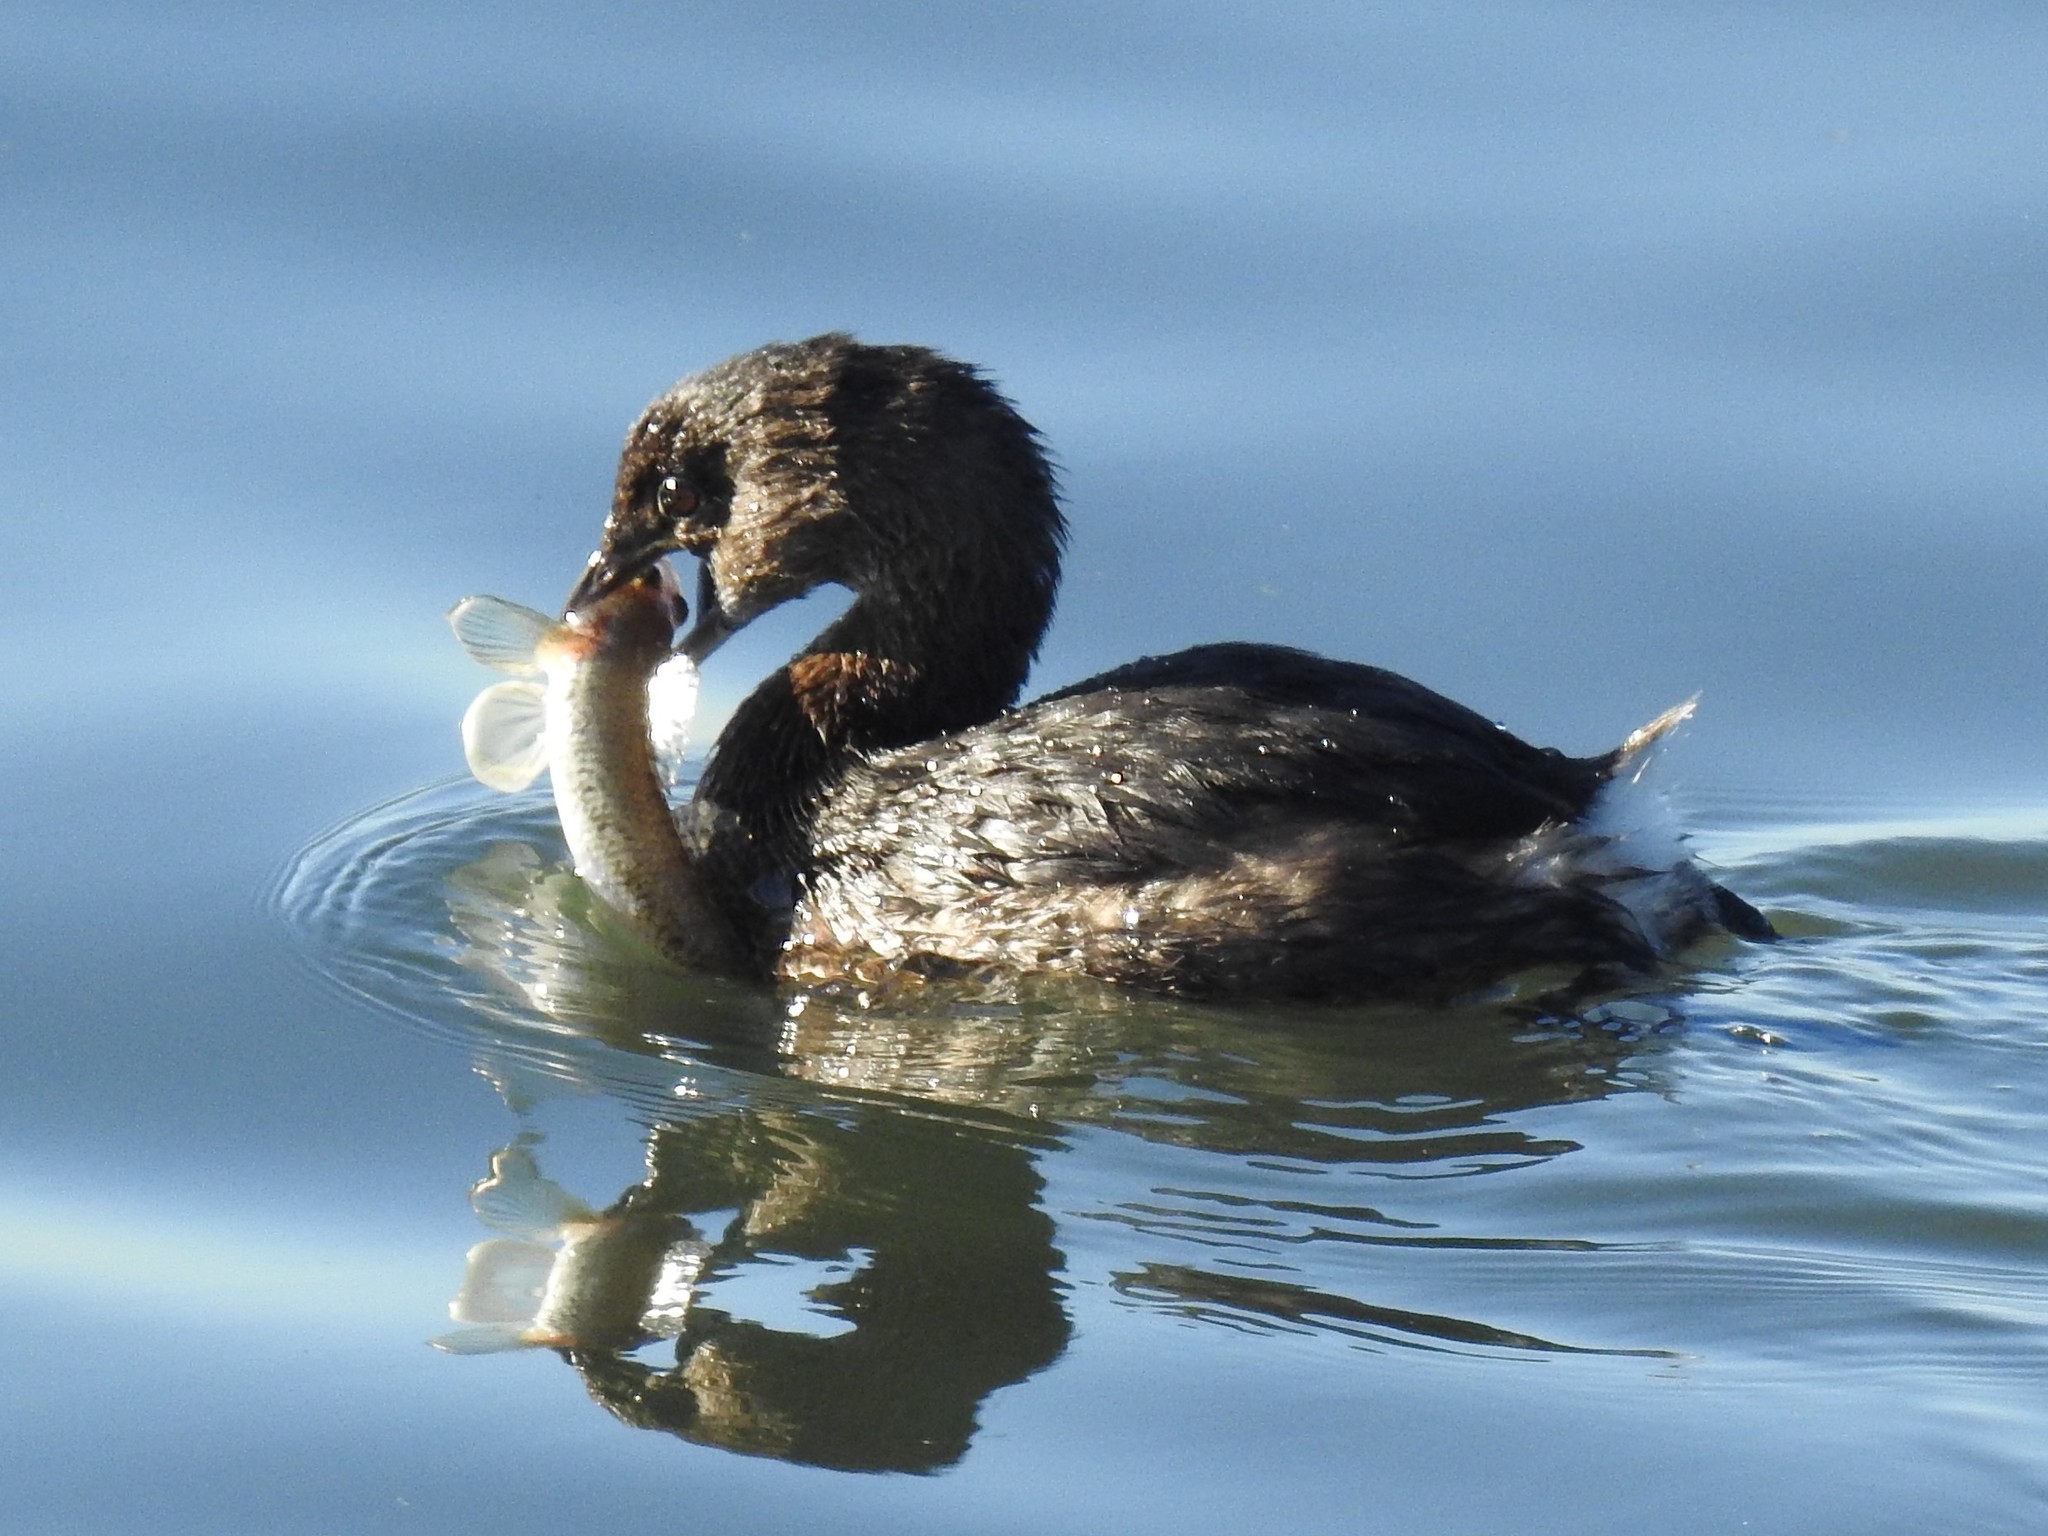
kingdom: Animalia
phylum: Chordata
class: Aves
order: Podicipediformes
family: Podicipedidae
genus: Podilymbus
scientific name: Podilymbus podiceps
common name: Pied-billed grebe
